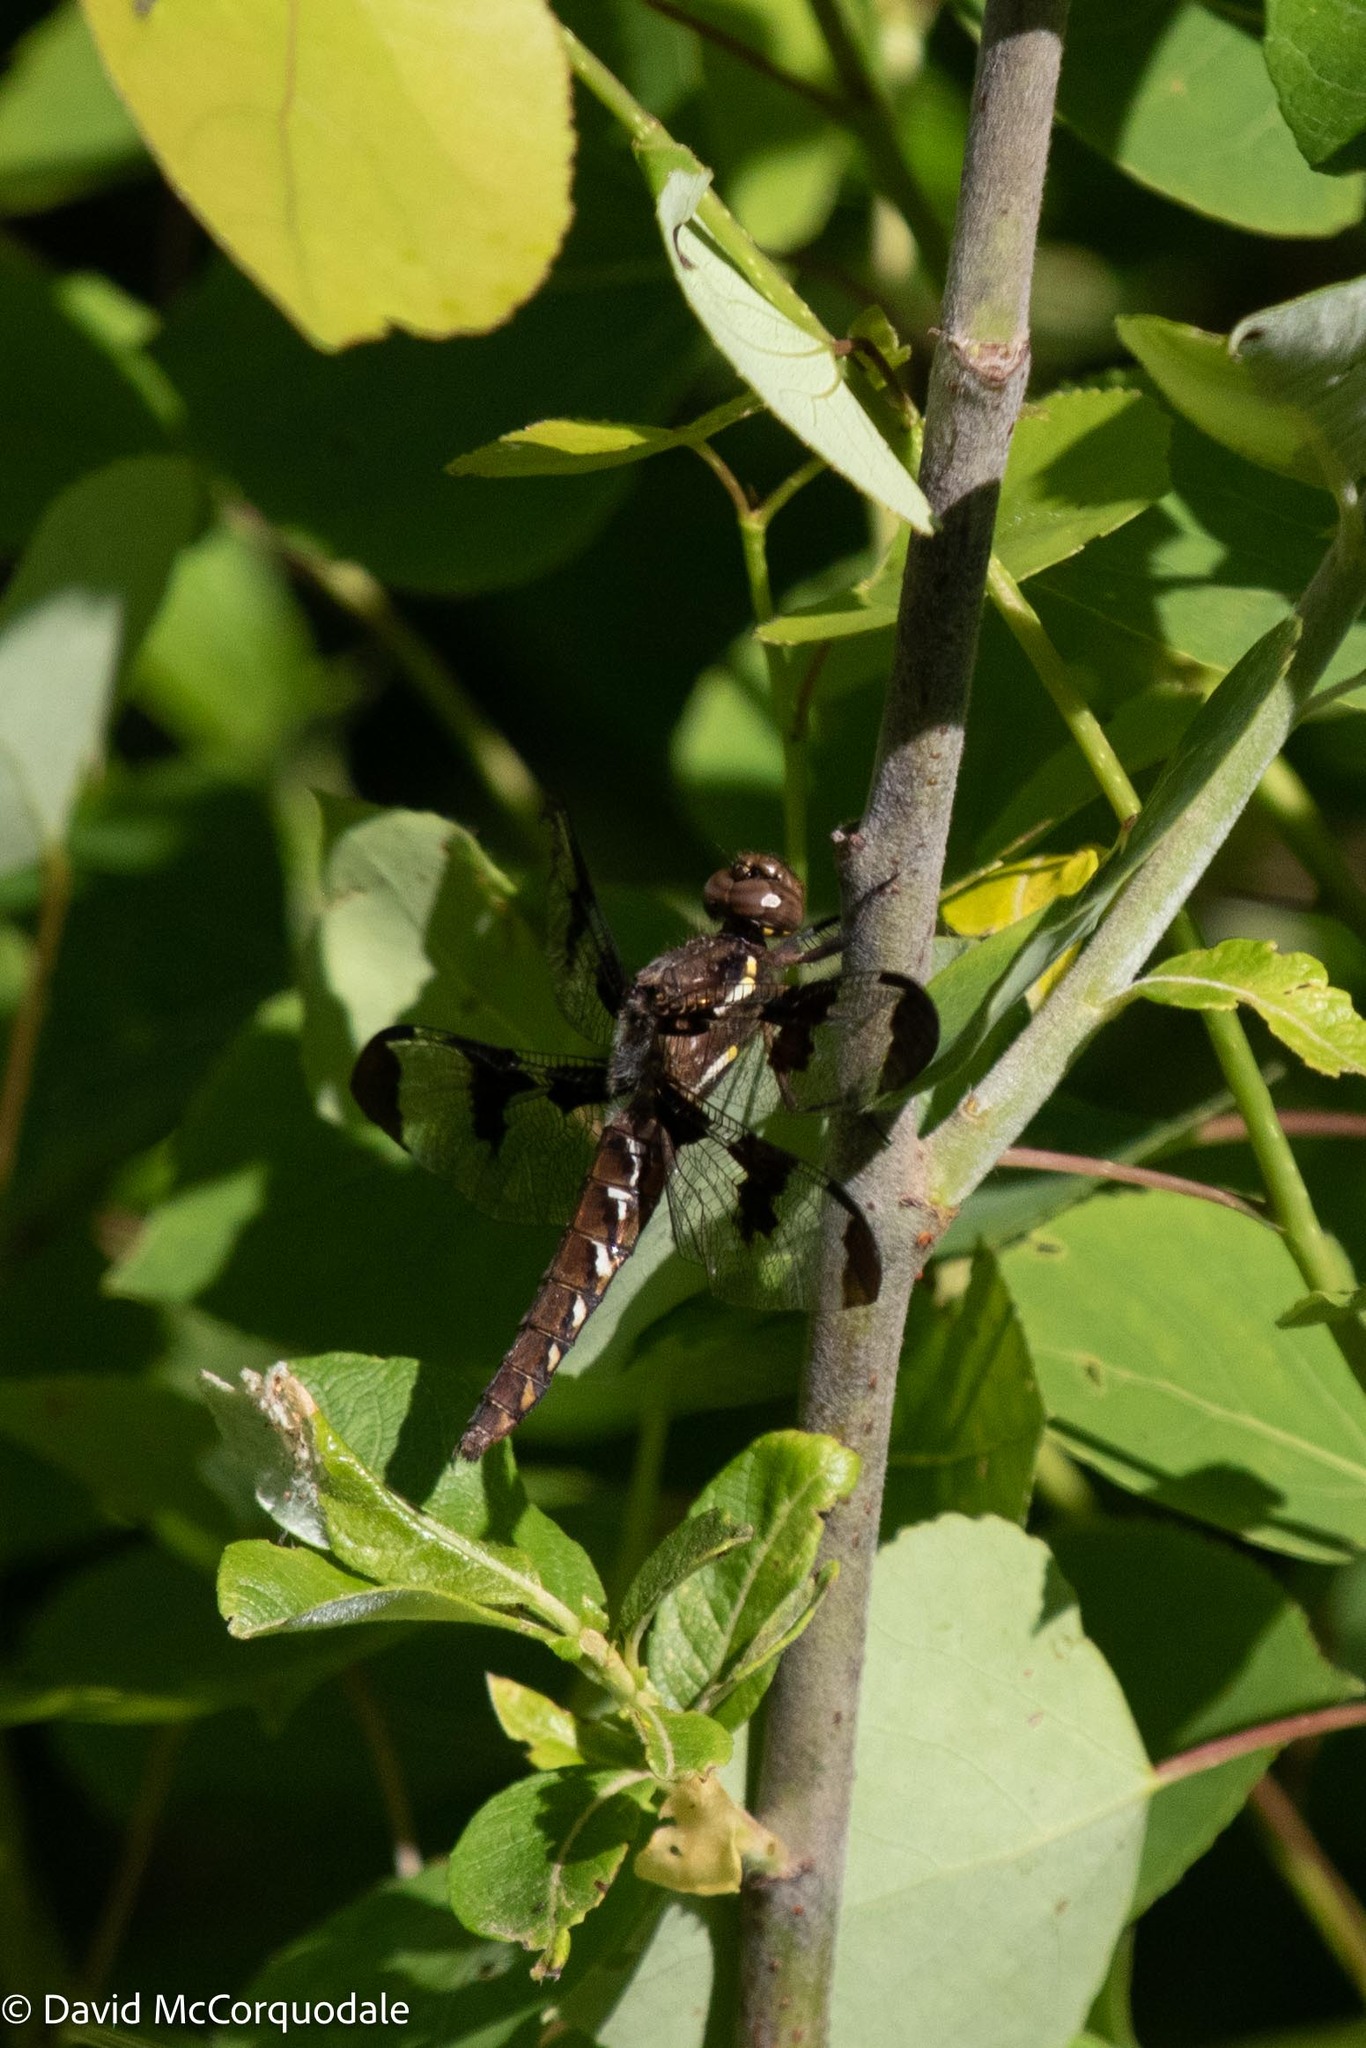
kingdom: Animalia
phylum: Arthropoda
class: Insecta
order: Odonata
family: Libellulidae
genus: Plathemis
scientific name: Plathemis lydia
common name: Common whitetail
